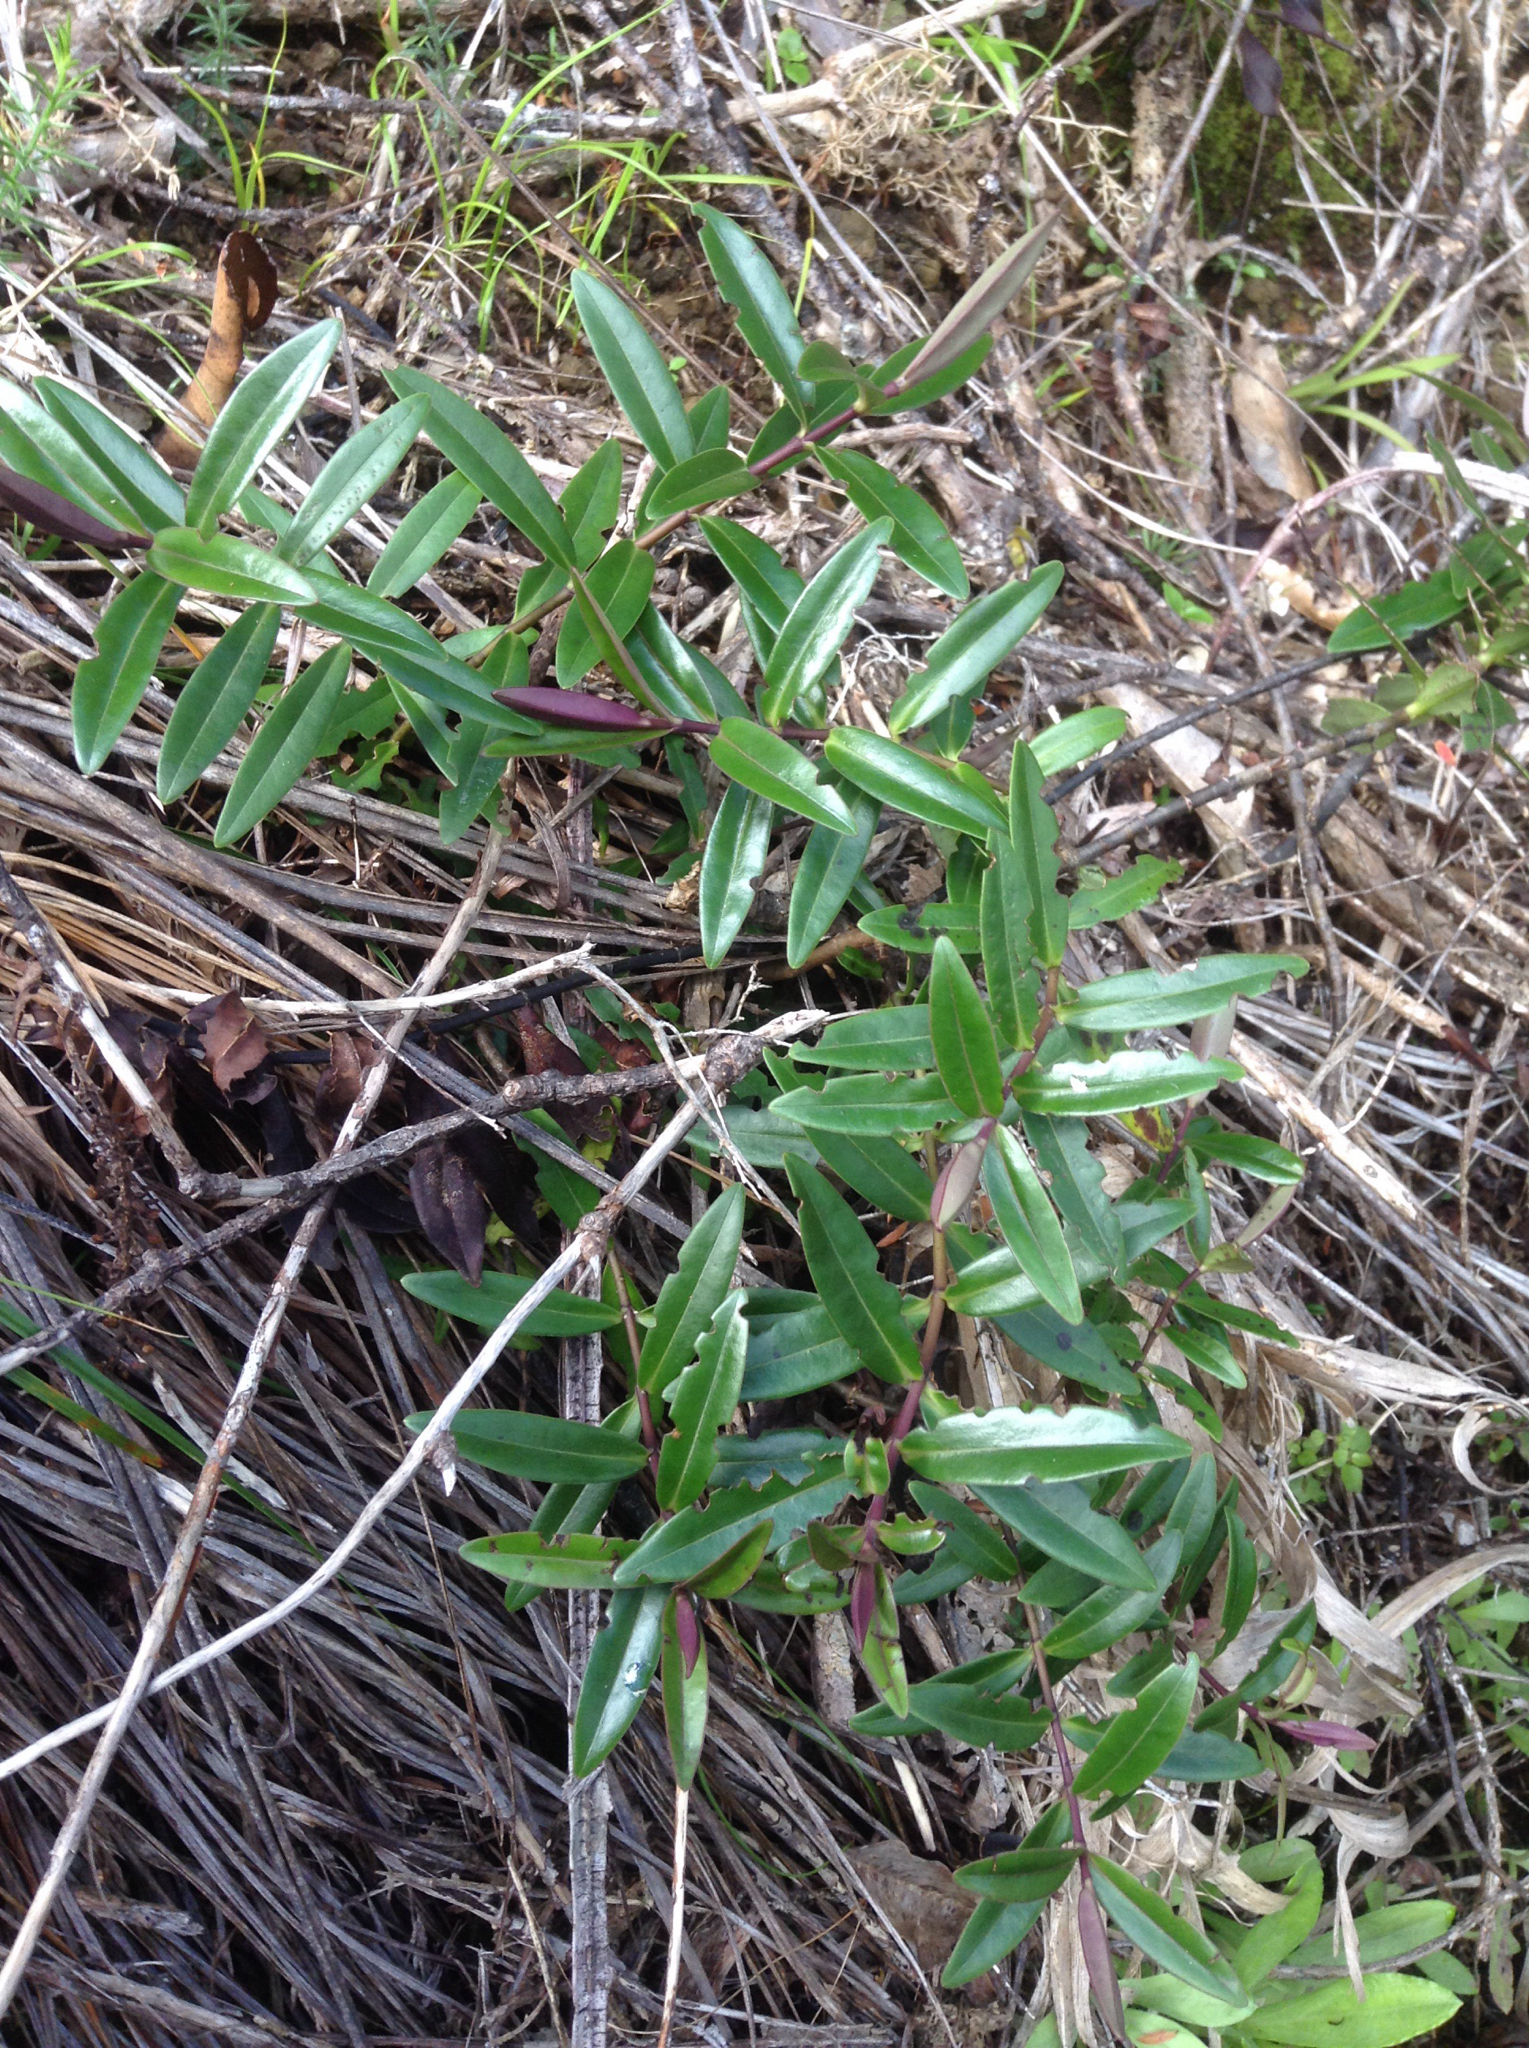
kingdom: Plantae
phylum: Tracheophyta
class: Magnoliopsida
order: Lamiales
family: Plantaginaceae
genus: Veronica
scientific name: Veronica bishopiana
